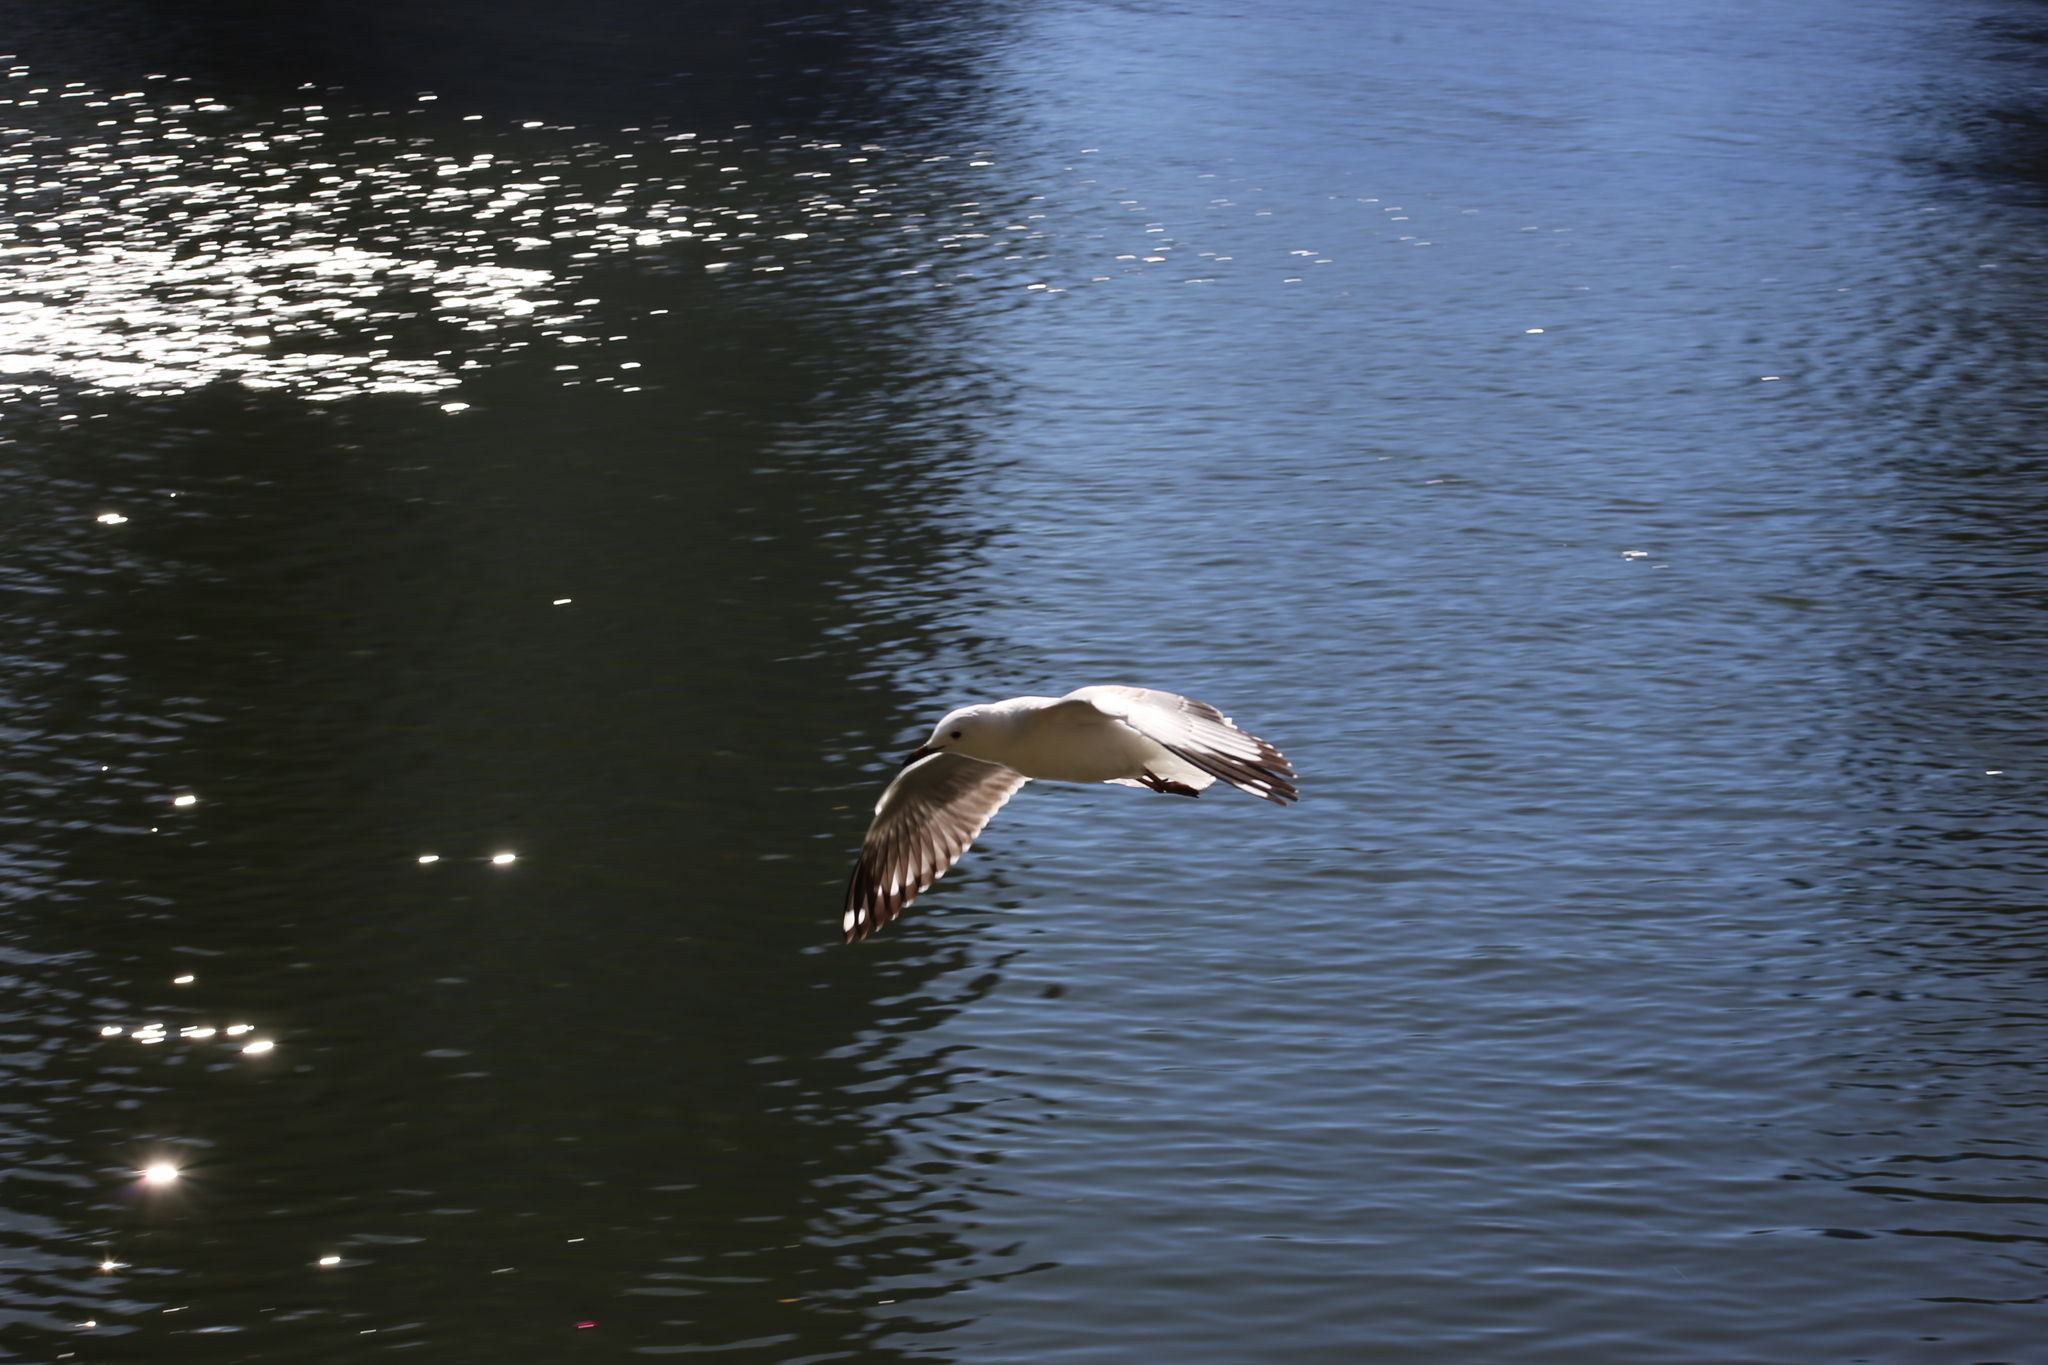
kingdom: Animalia
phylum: Chordata
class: Aves
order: Charadriiformes
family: Laridae
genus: Chroicocephalus
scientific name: Chroicocephalus novaehollandiae
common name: Silver gull
